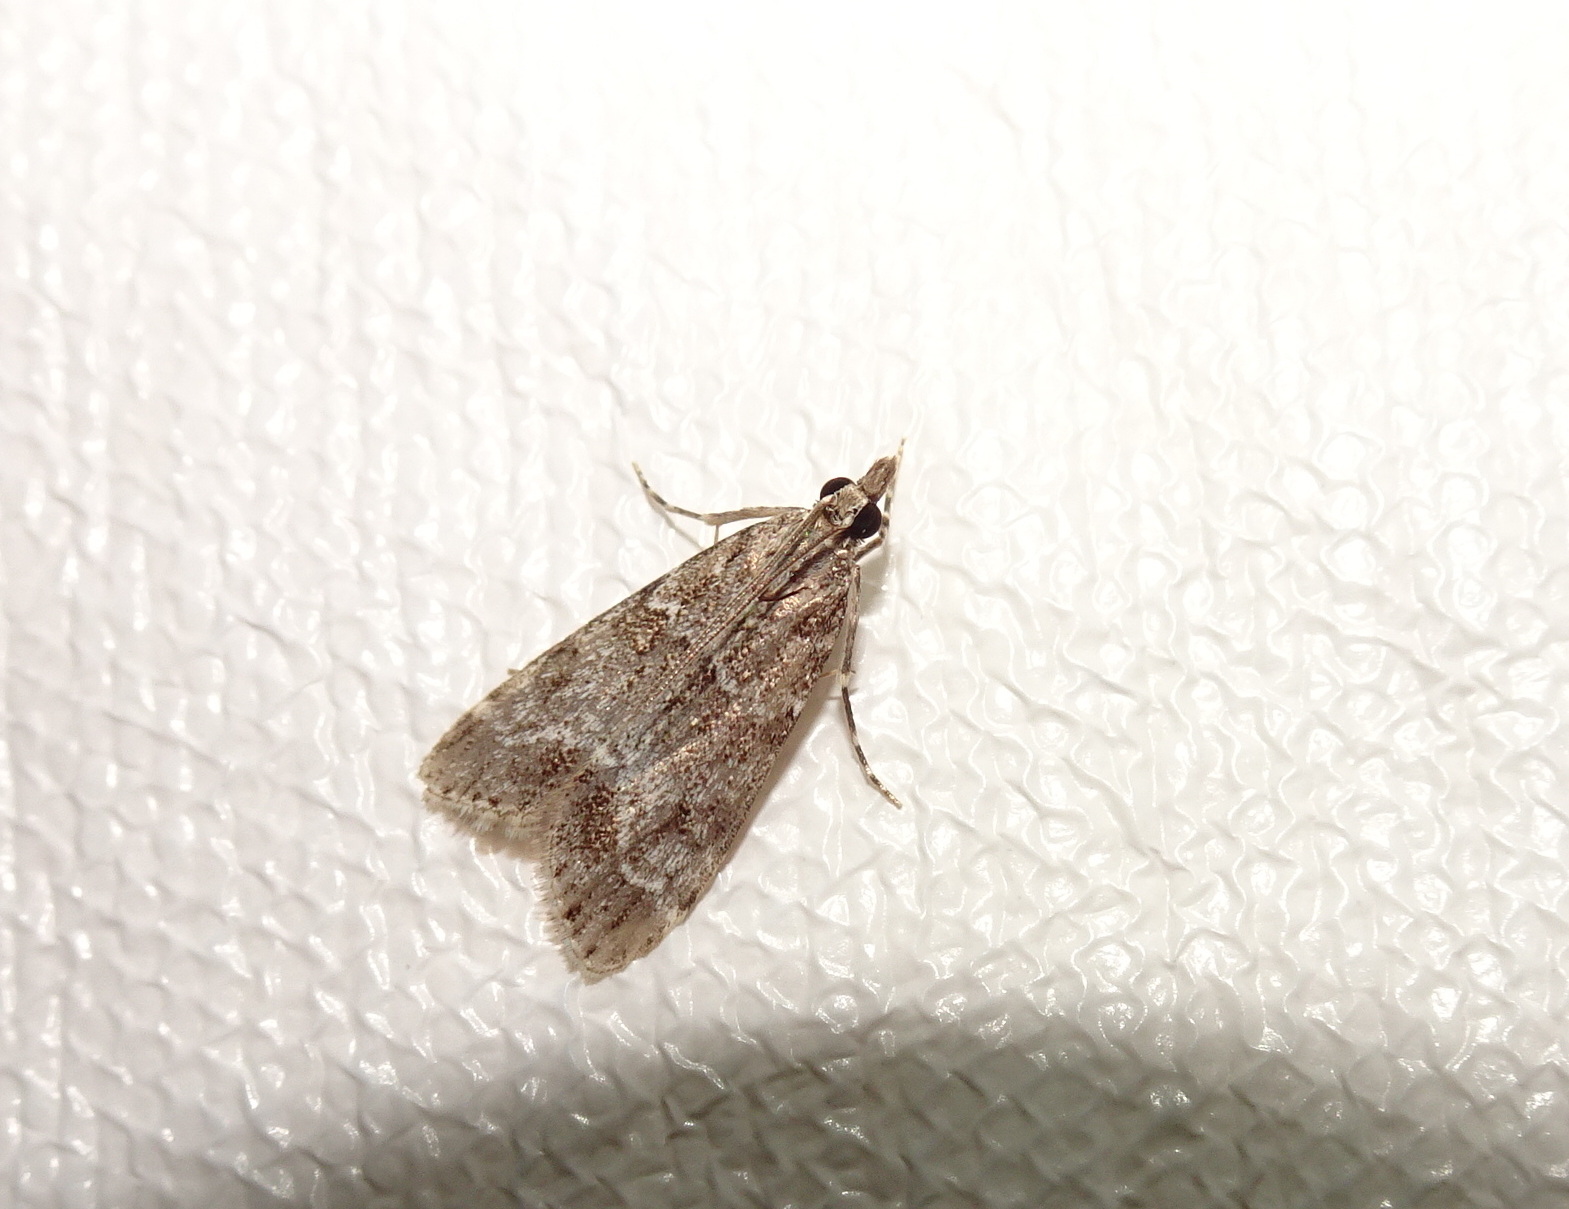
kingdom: Animalia
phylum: Arthropoda
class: Insecta
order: Lepidoptera
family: Crambidae
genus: Eudonia
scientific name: Eudonia mercurella
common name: Small grey
